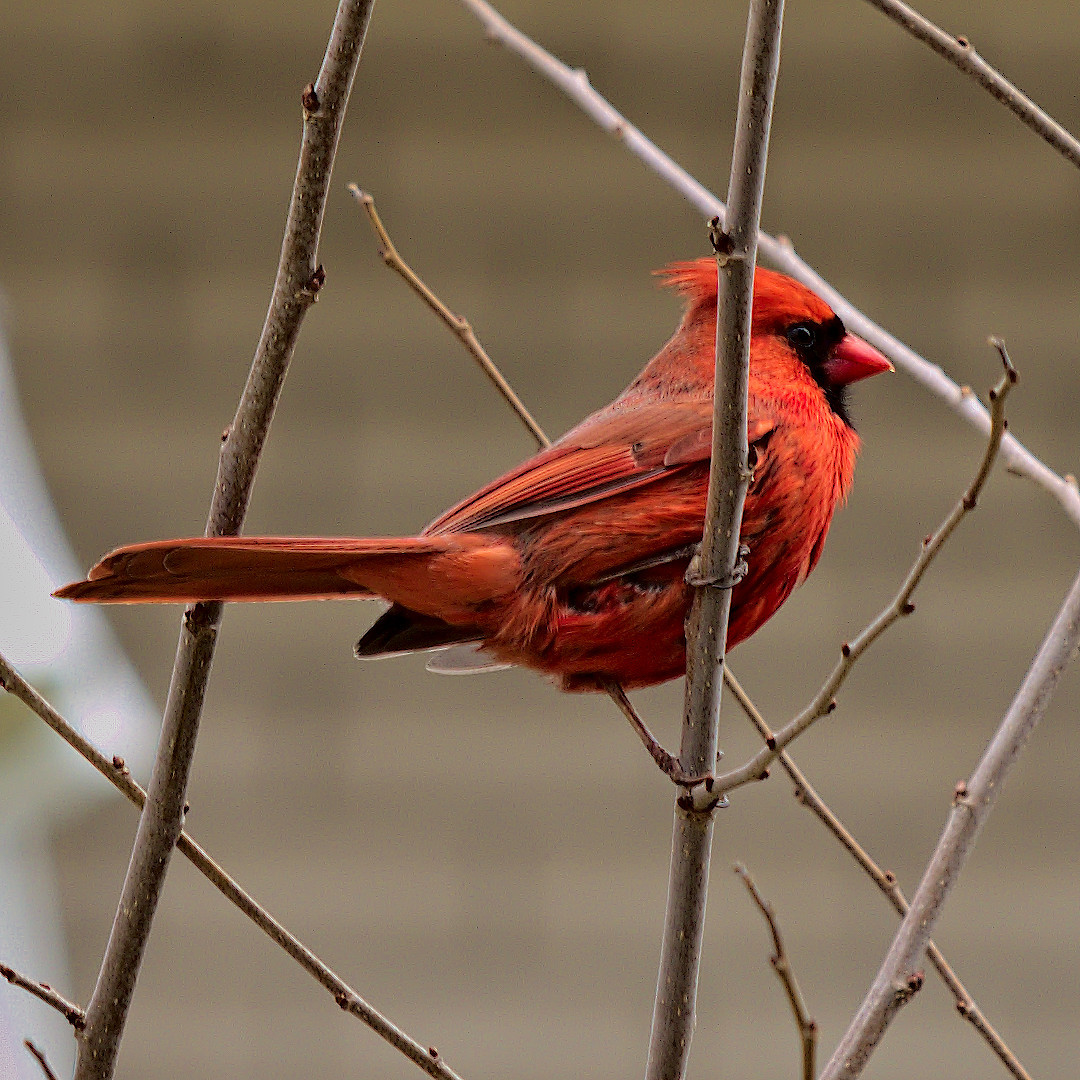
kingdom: Animalia
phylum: Chordata
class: Aves
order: Passeriformes
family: Cardinalidae
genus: Cardinalis
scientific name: Cardinalis cardinalis
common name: Northern cardinal
